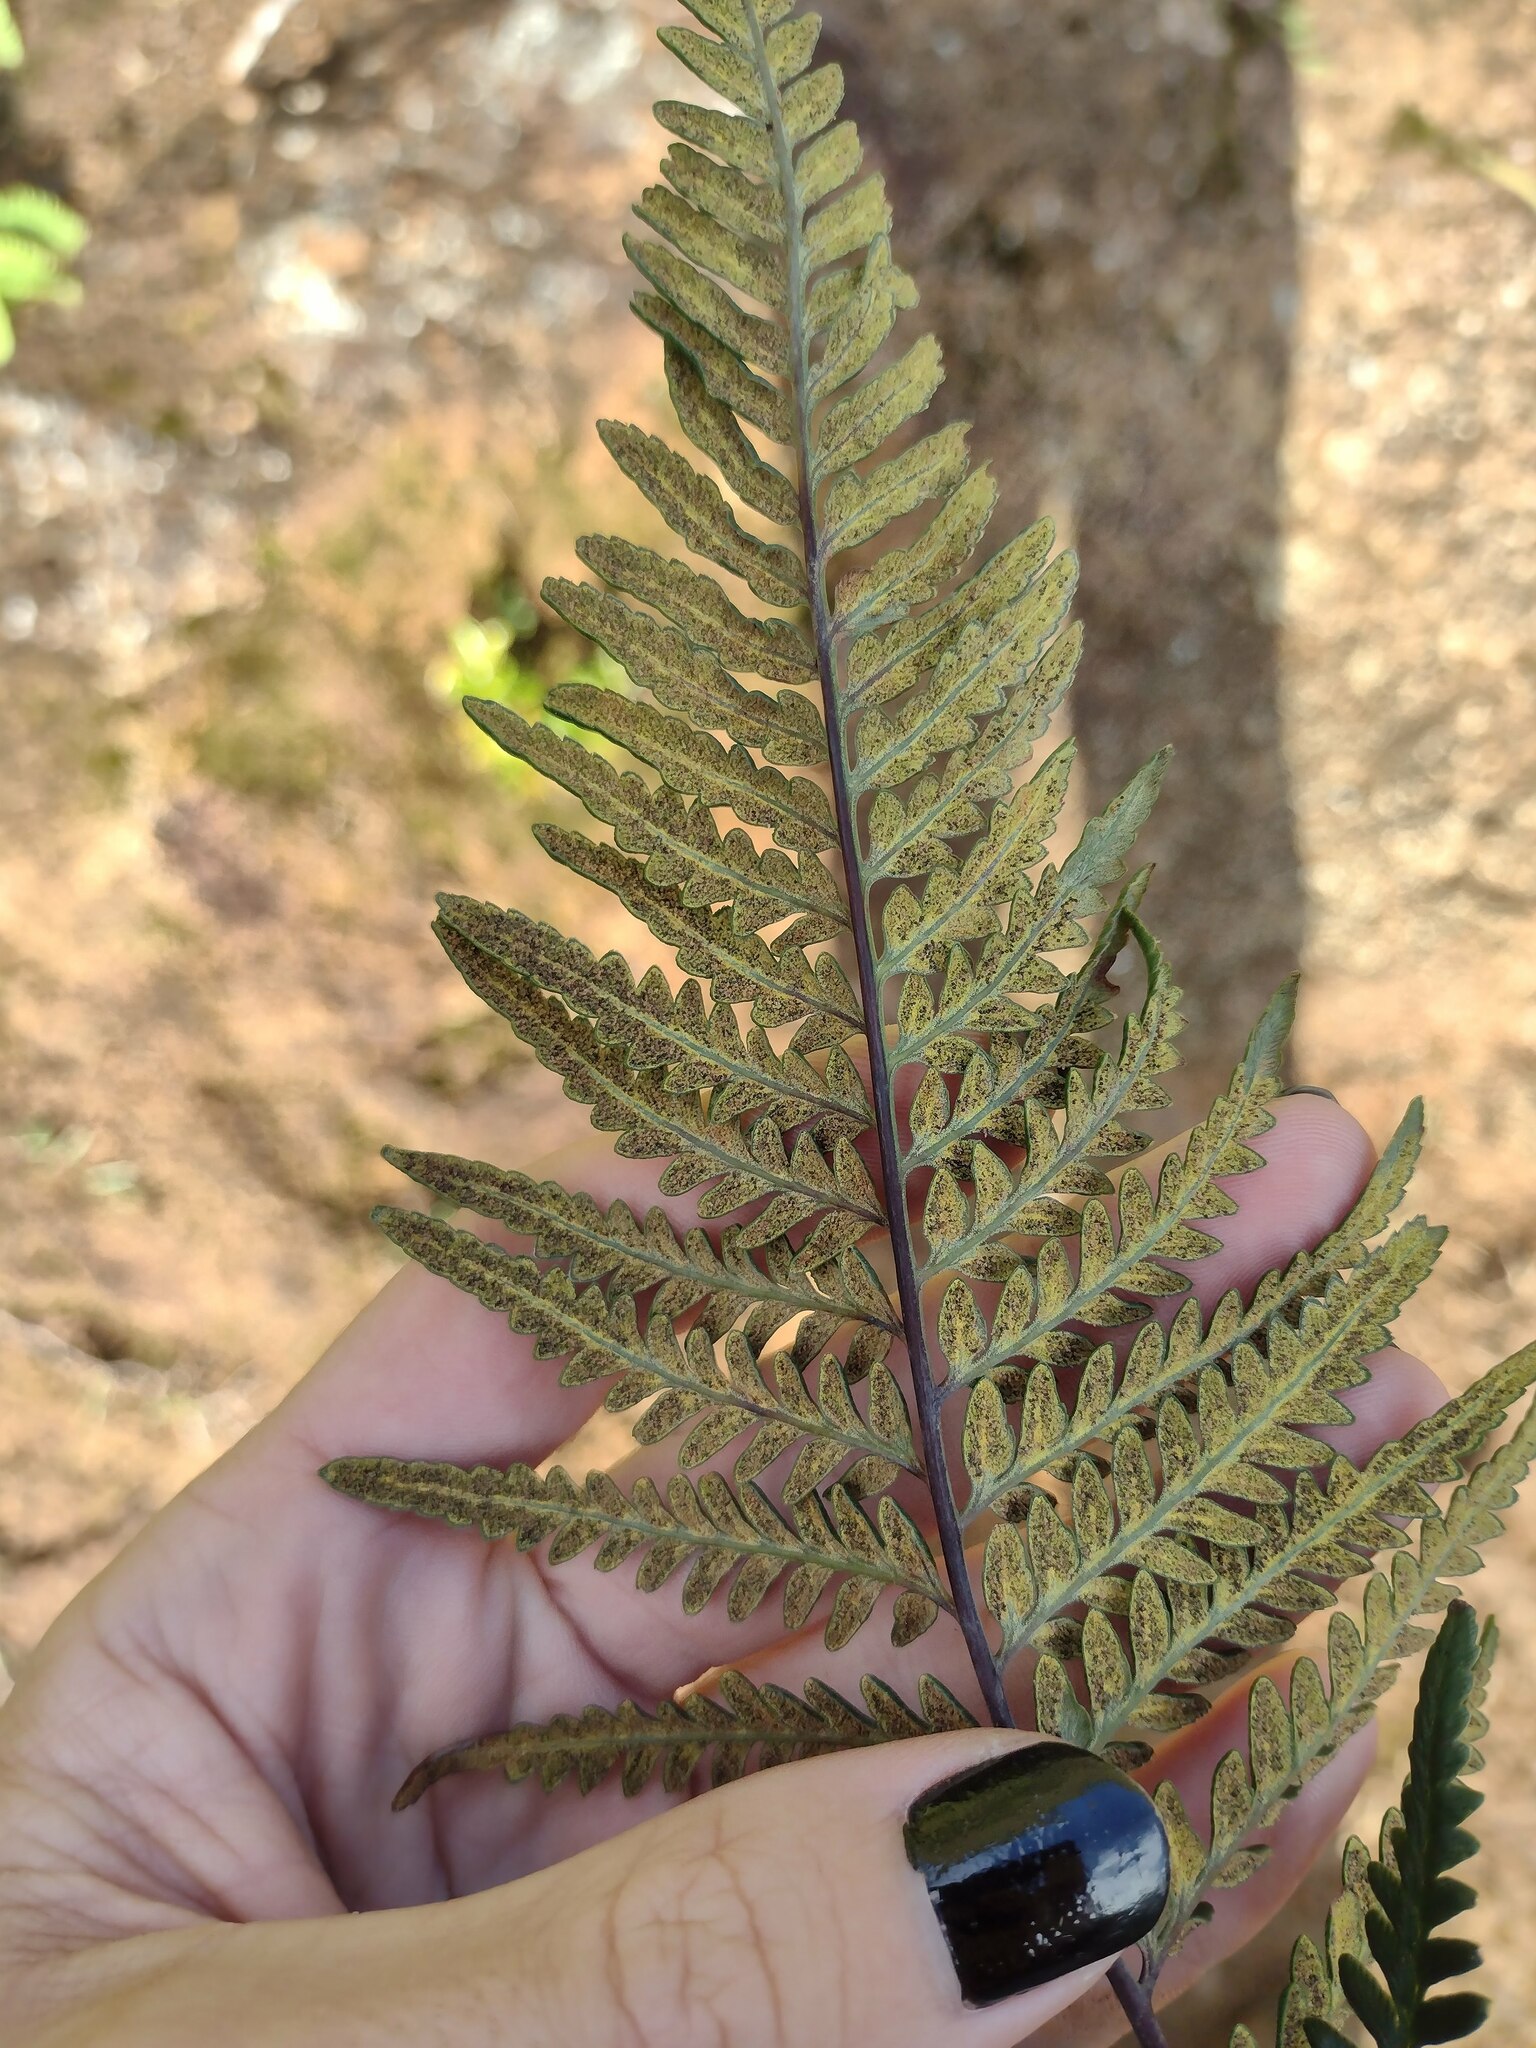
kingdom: Plantae
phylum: Tracheophyta
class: Polypodiopsida
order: Polypodiales
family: Pteridaceae
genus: Pityrogramma
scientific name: Pityrogramma austroamericana
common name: Leatherleaf goldback fern
